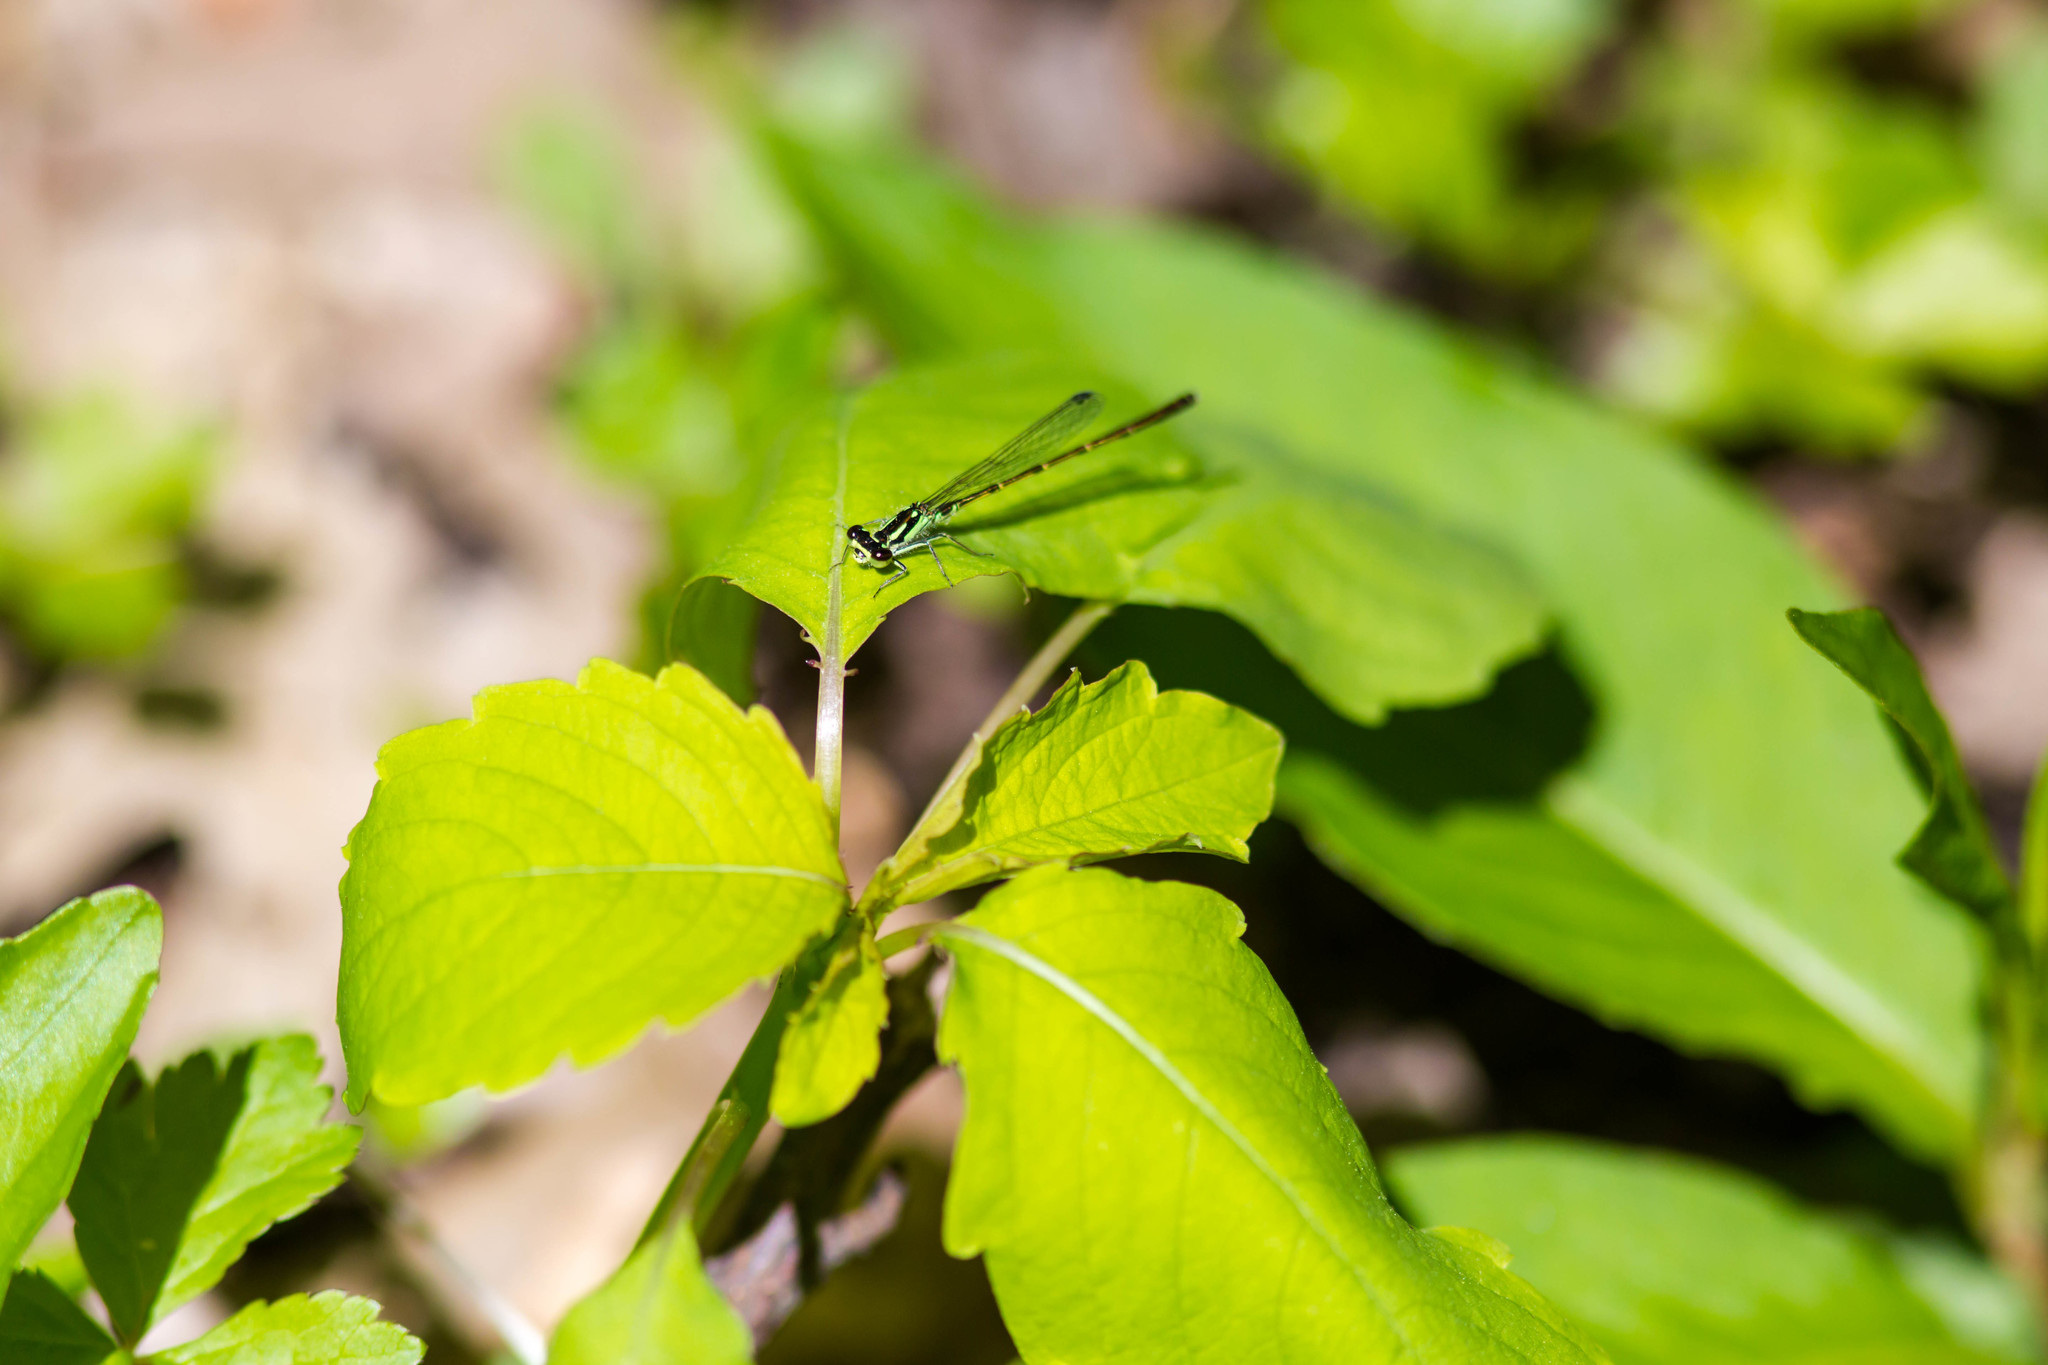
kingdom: Animalia
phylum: Arthropoda
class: Insecta
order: Odonata
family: Coenagrionidae
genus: Ischnura
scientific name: Ischnura posita
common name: Fragile forktail
